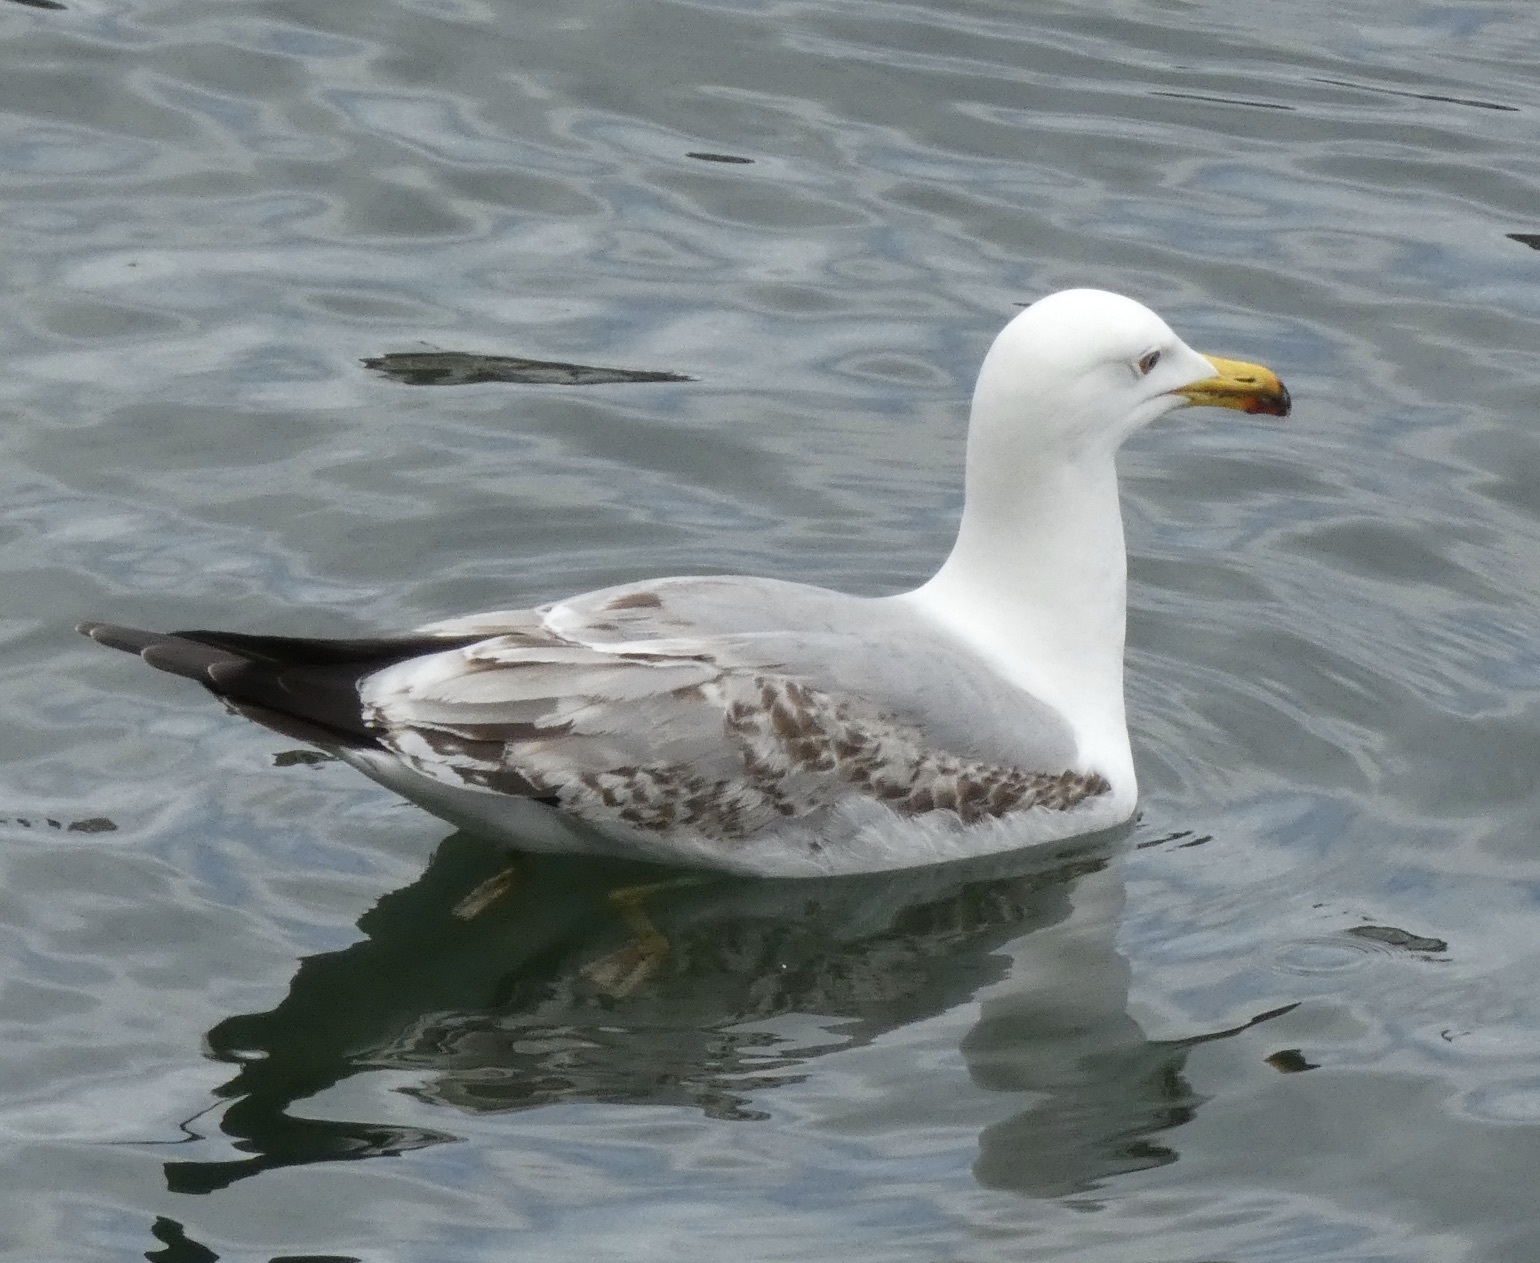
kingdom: Animalia
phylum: Chordata
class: Aves
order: Charadriiformes
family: Laridae
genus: Larus
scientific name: Larus michahellis
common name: Yellow-legged gull
